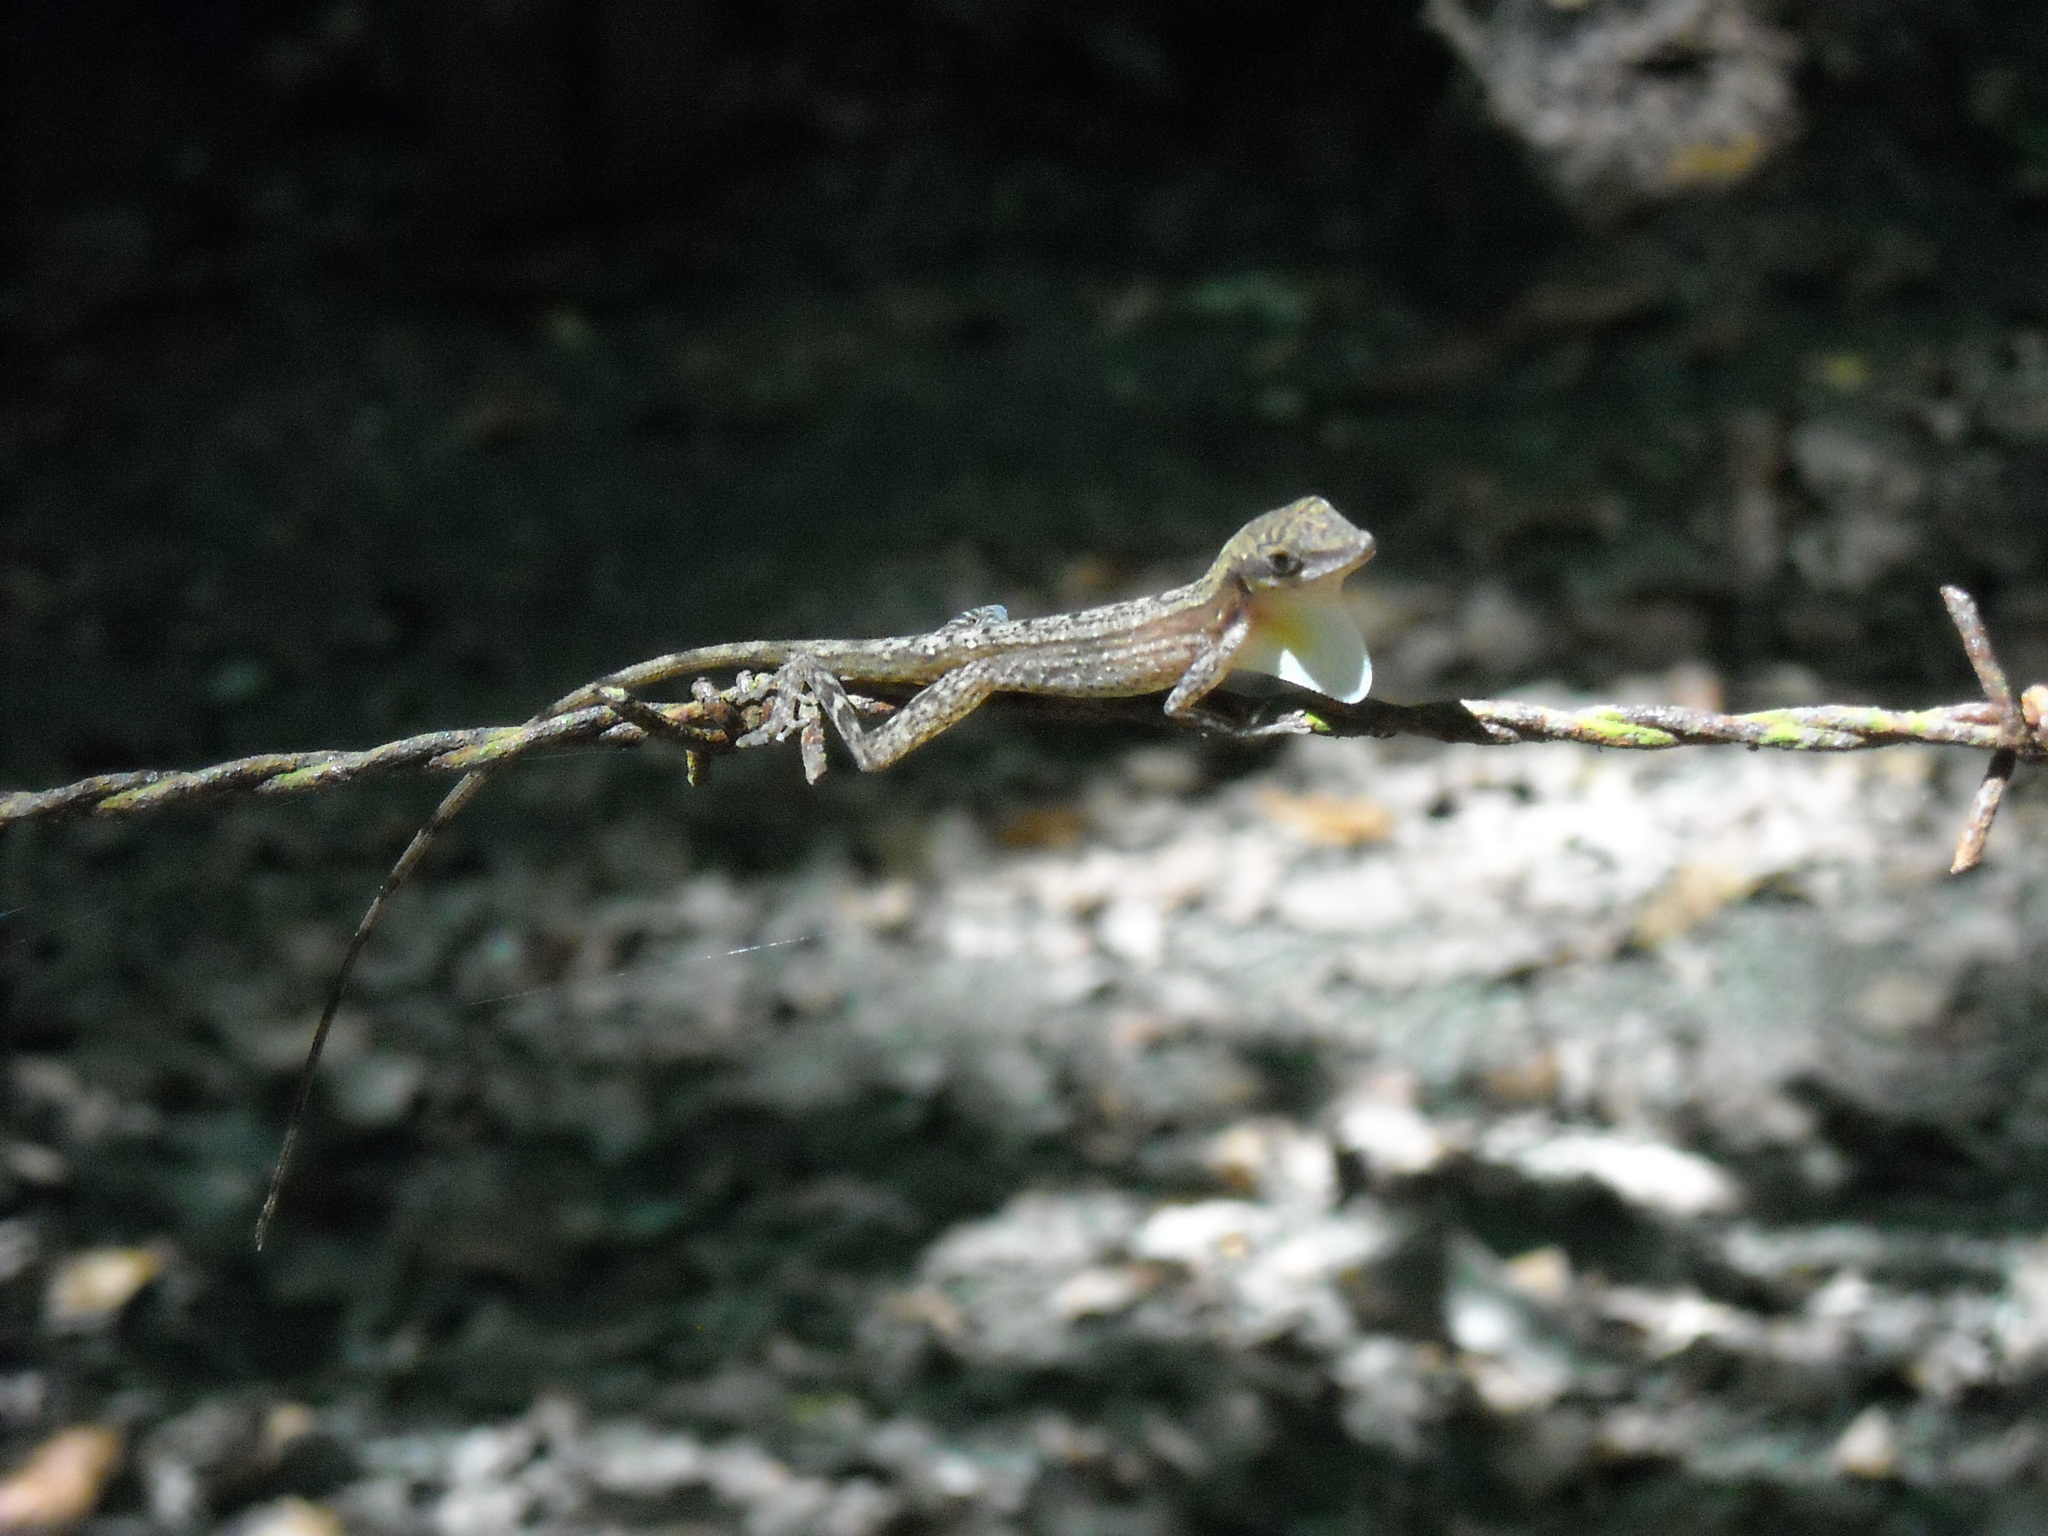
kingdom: Animalia
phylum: Chordata
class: Squamata
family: Dactyloidae
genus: Anolis
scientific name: Anolis limifrons
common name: Border anole
